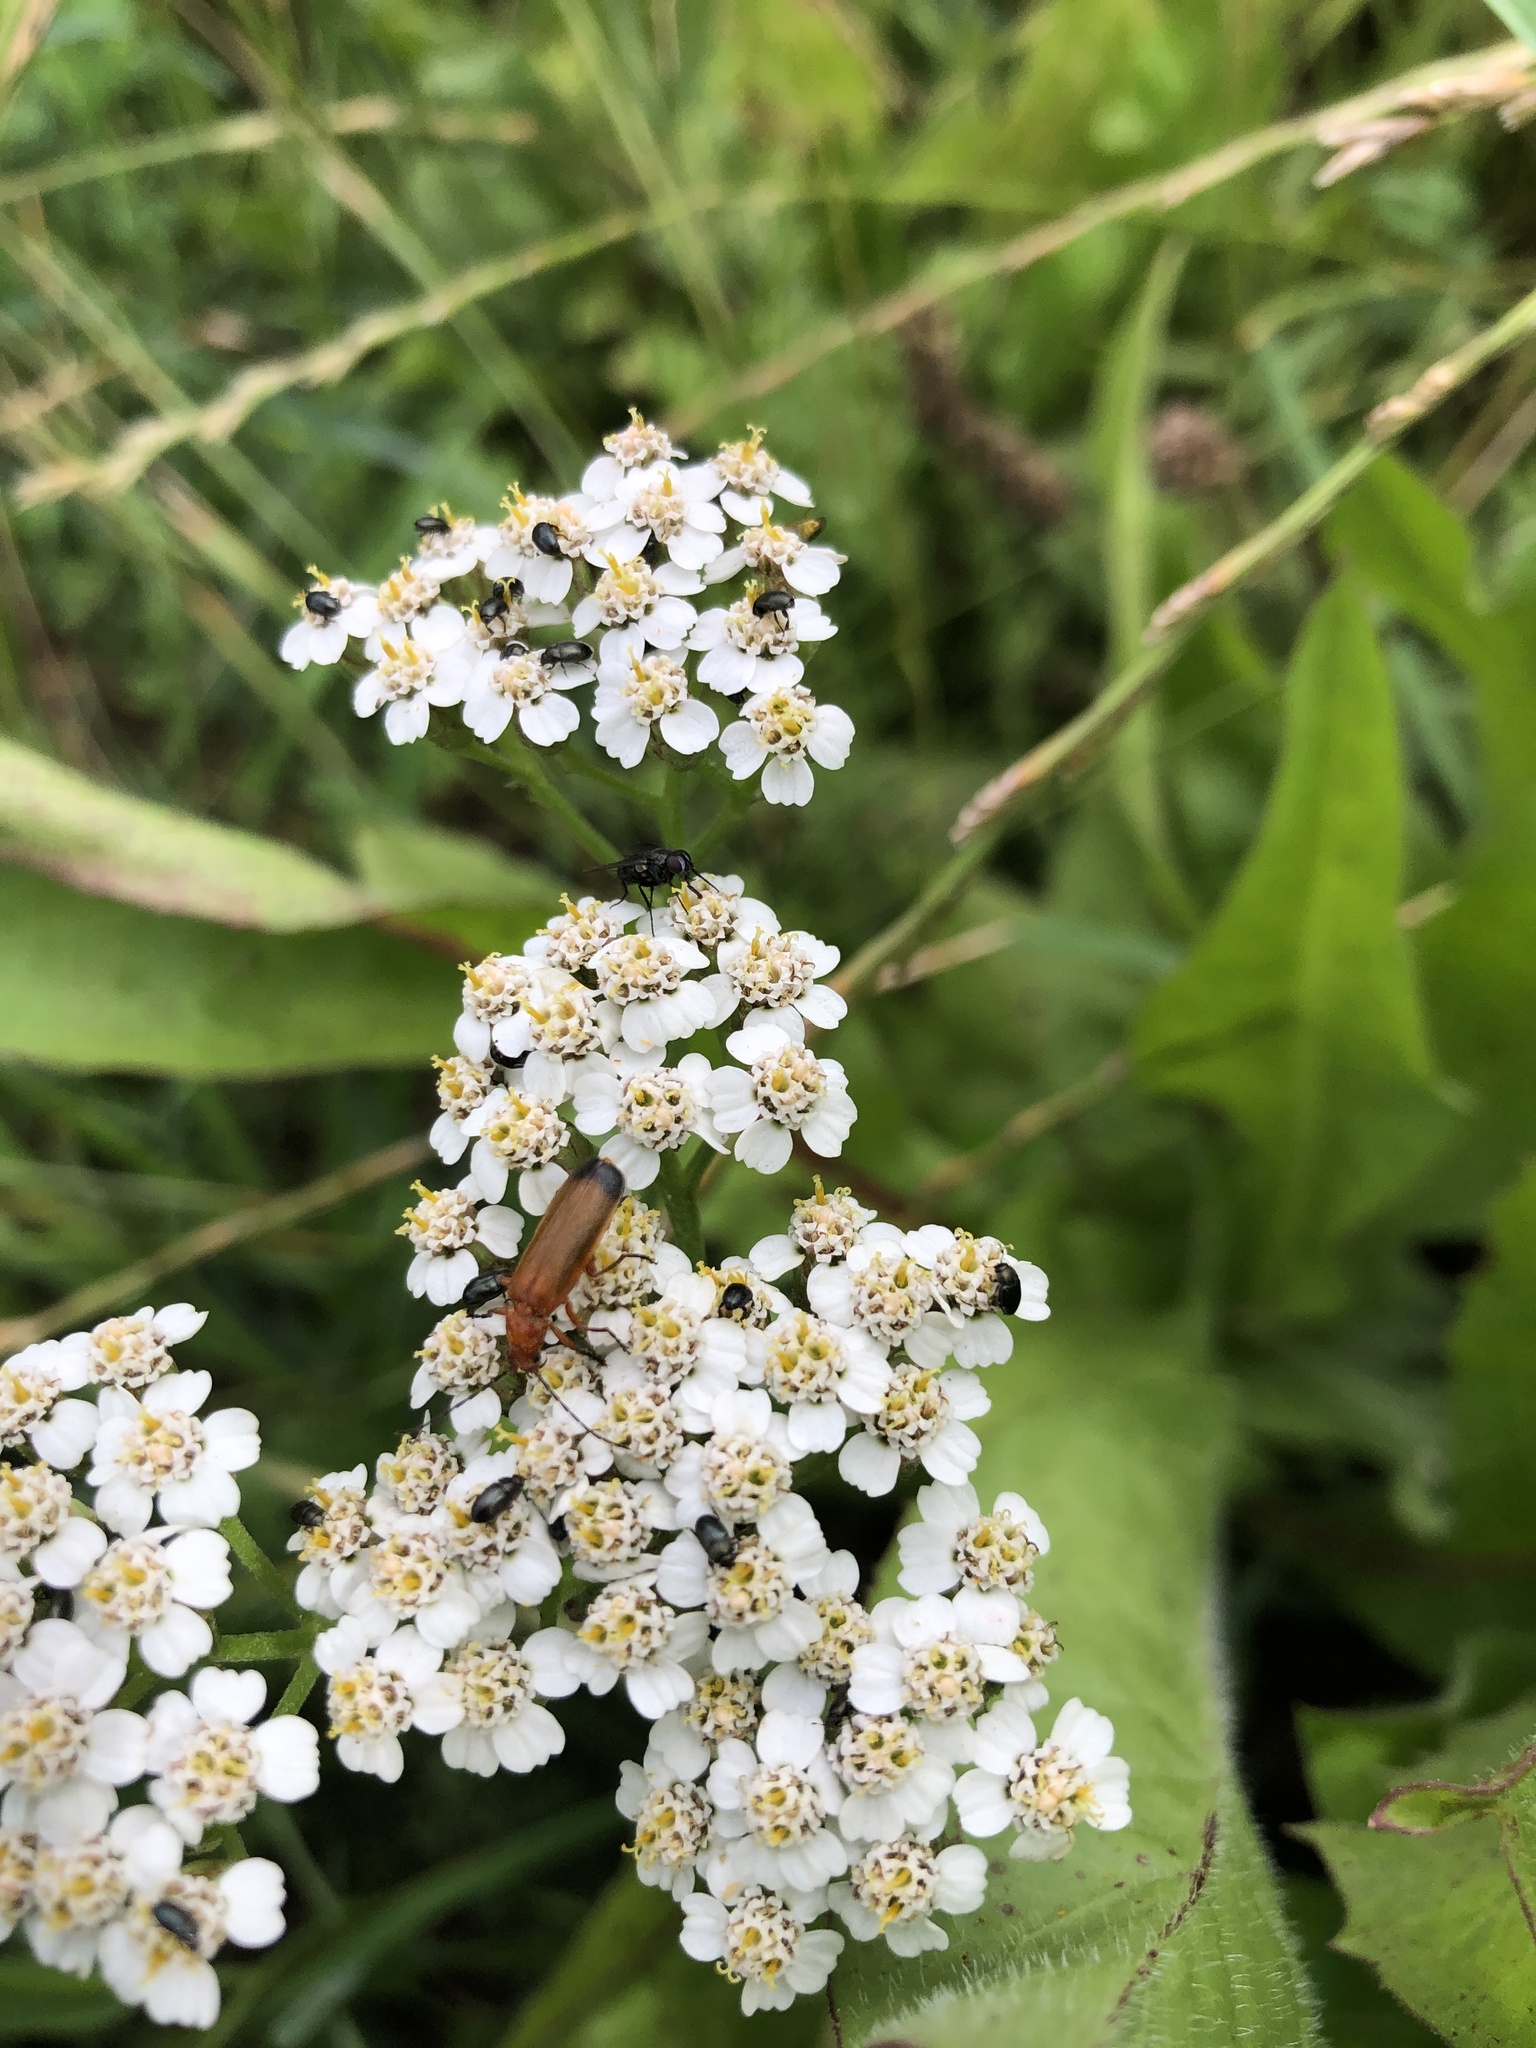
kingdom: Animalia
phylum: Arthropoda
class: Insecta
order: Coleoptera
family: Cantharidae
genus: Rhagonycha
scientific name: Rhagonycha fulva
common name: Common red soldier beetle
